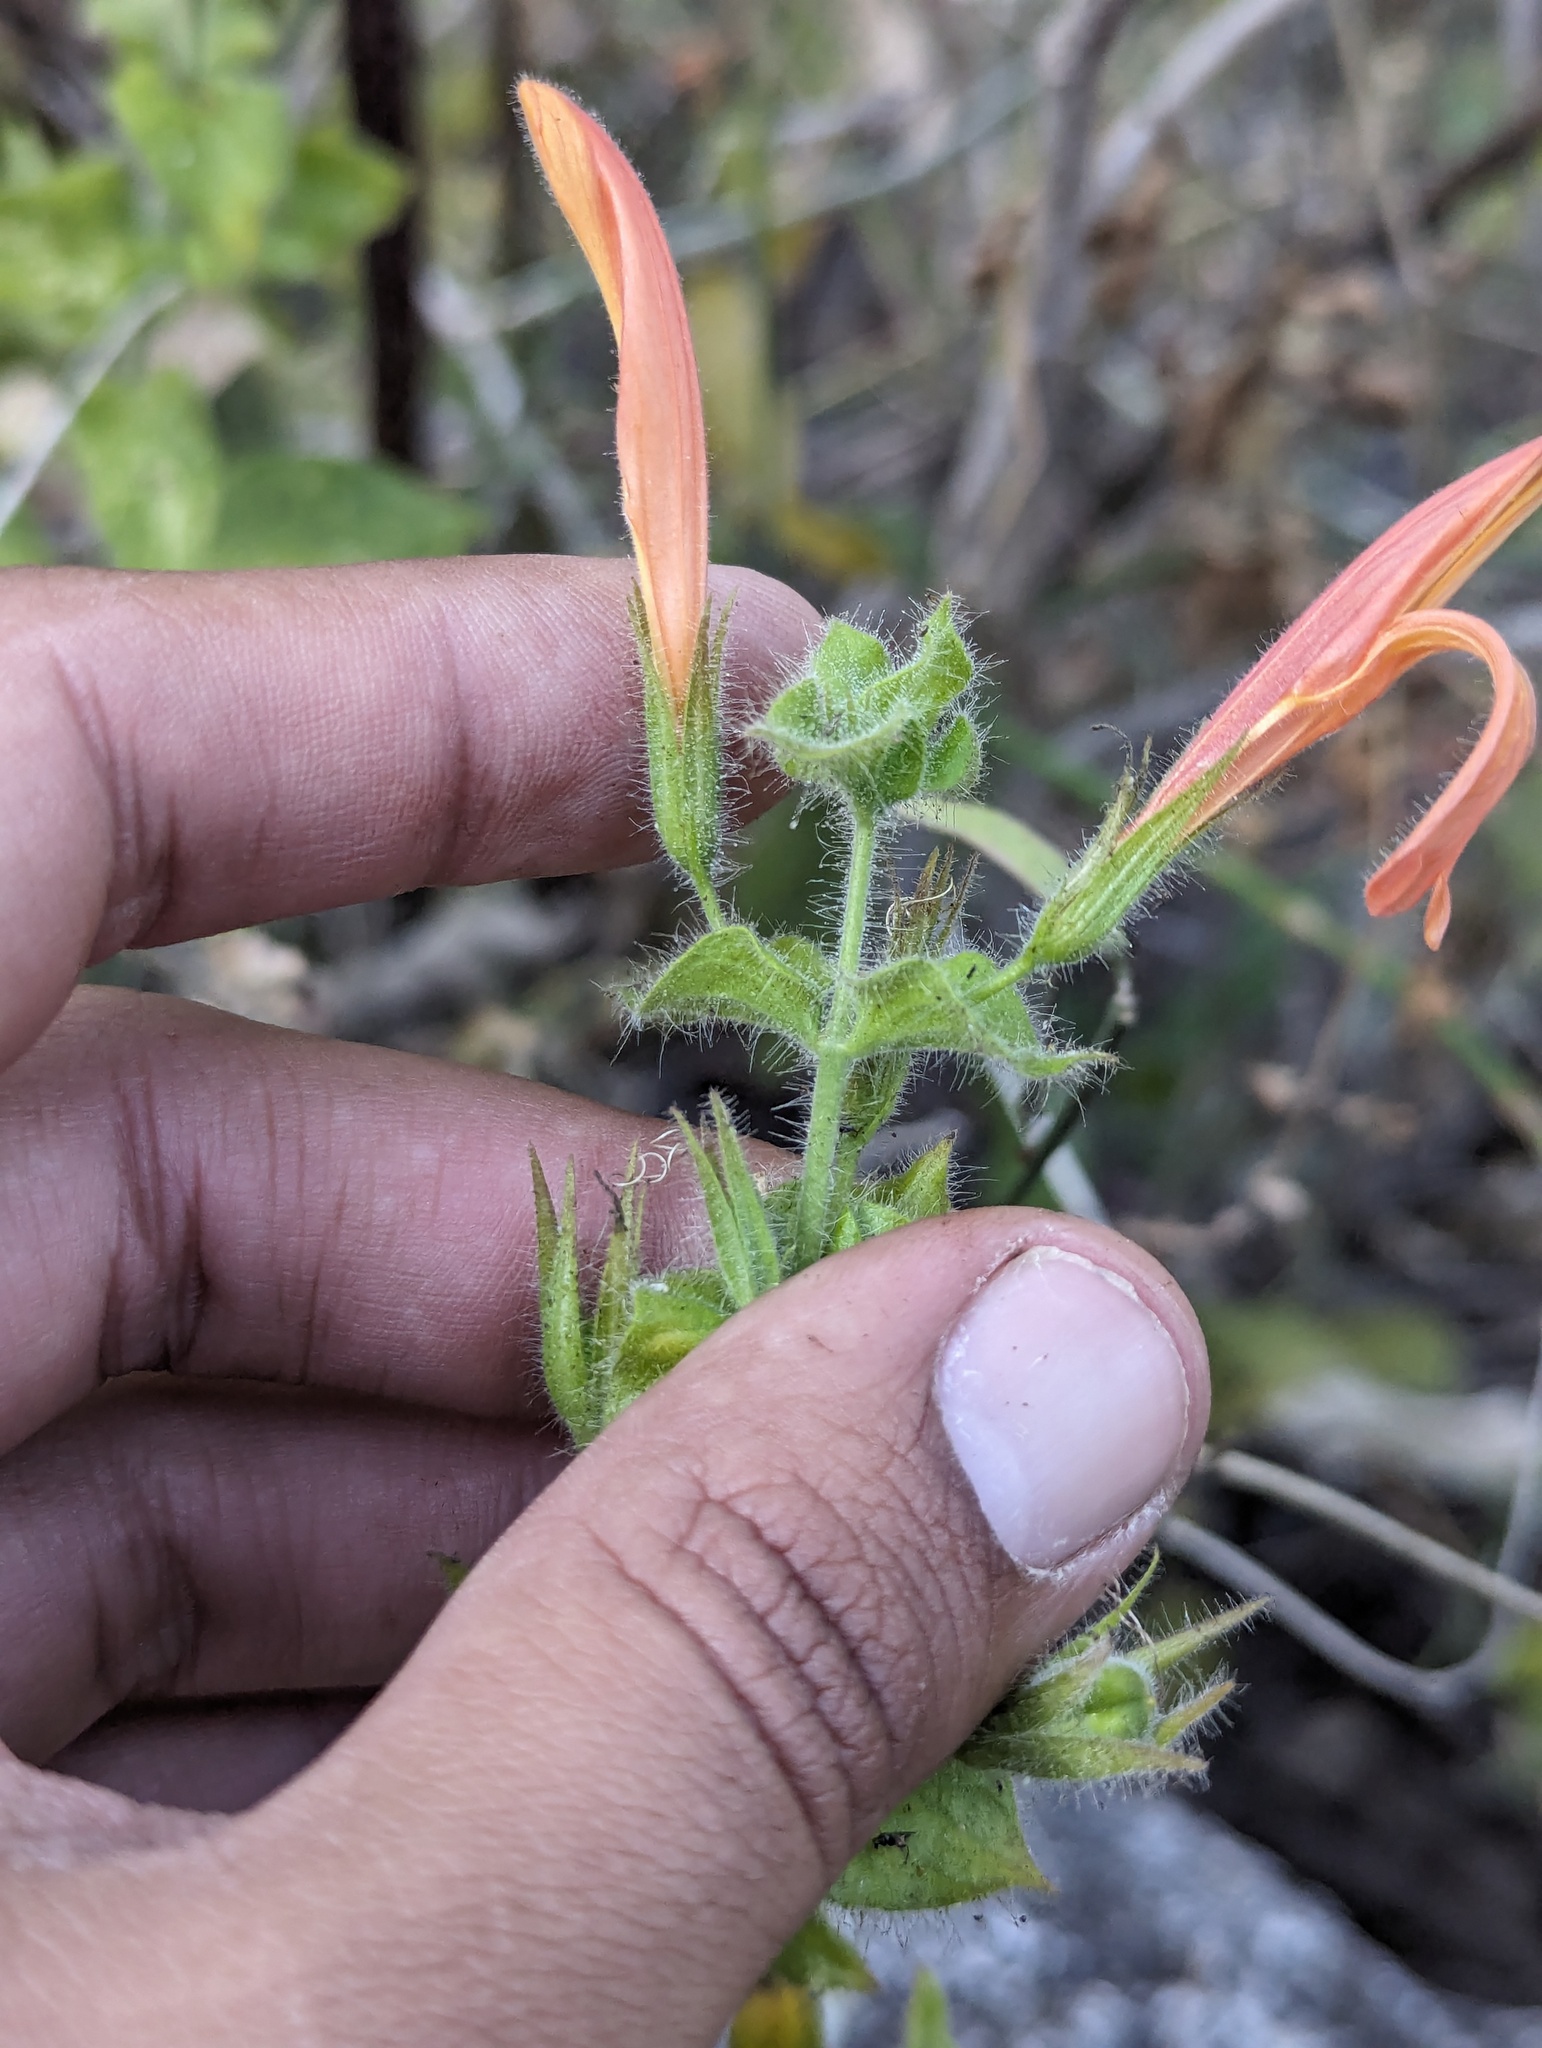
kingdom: Plantae
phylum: Tracheophyta
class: Magnoliopsida
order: Lamiales
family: Acanthaceae
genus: Justicia
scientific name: Justicia purpusii
